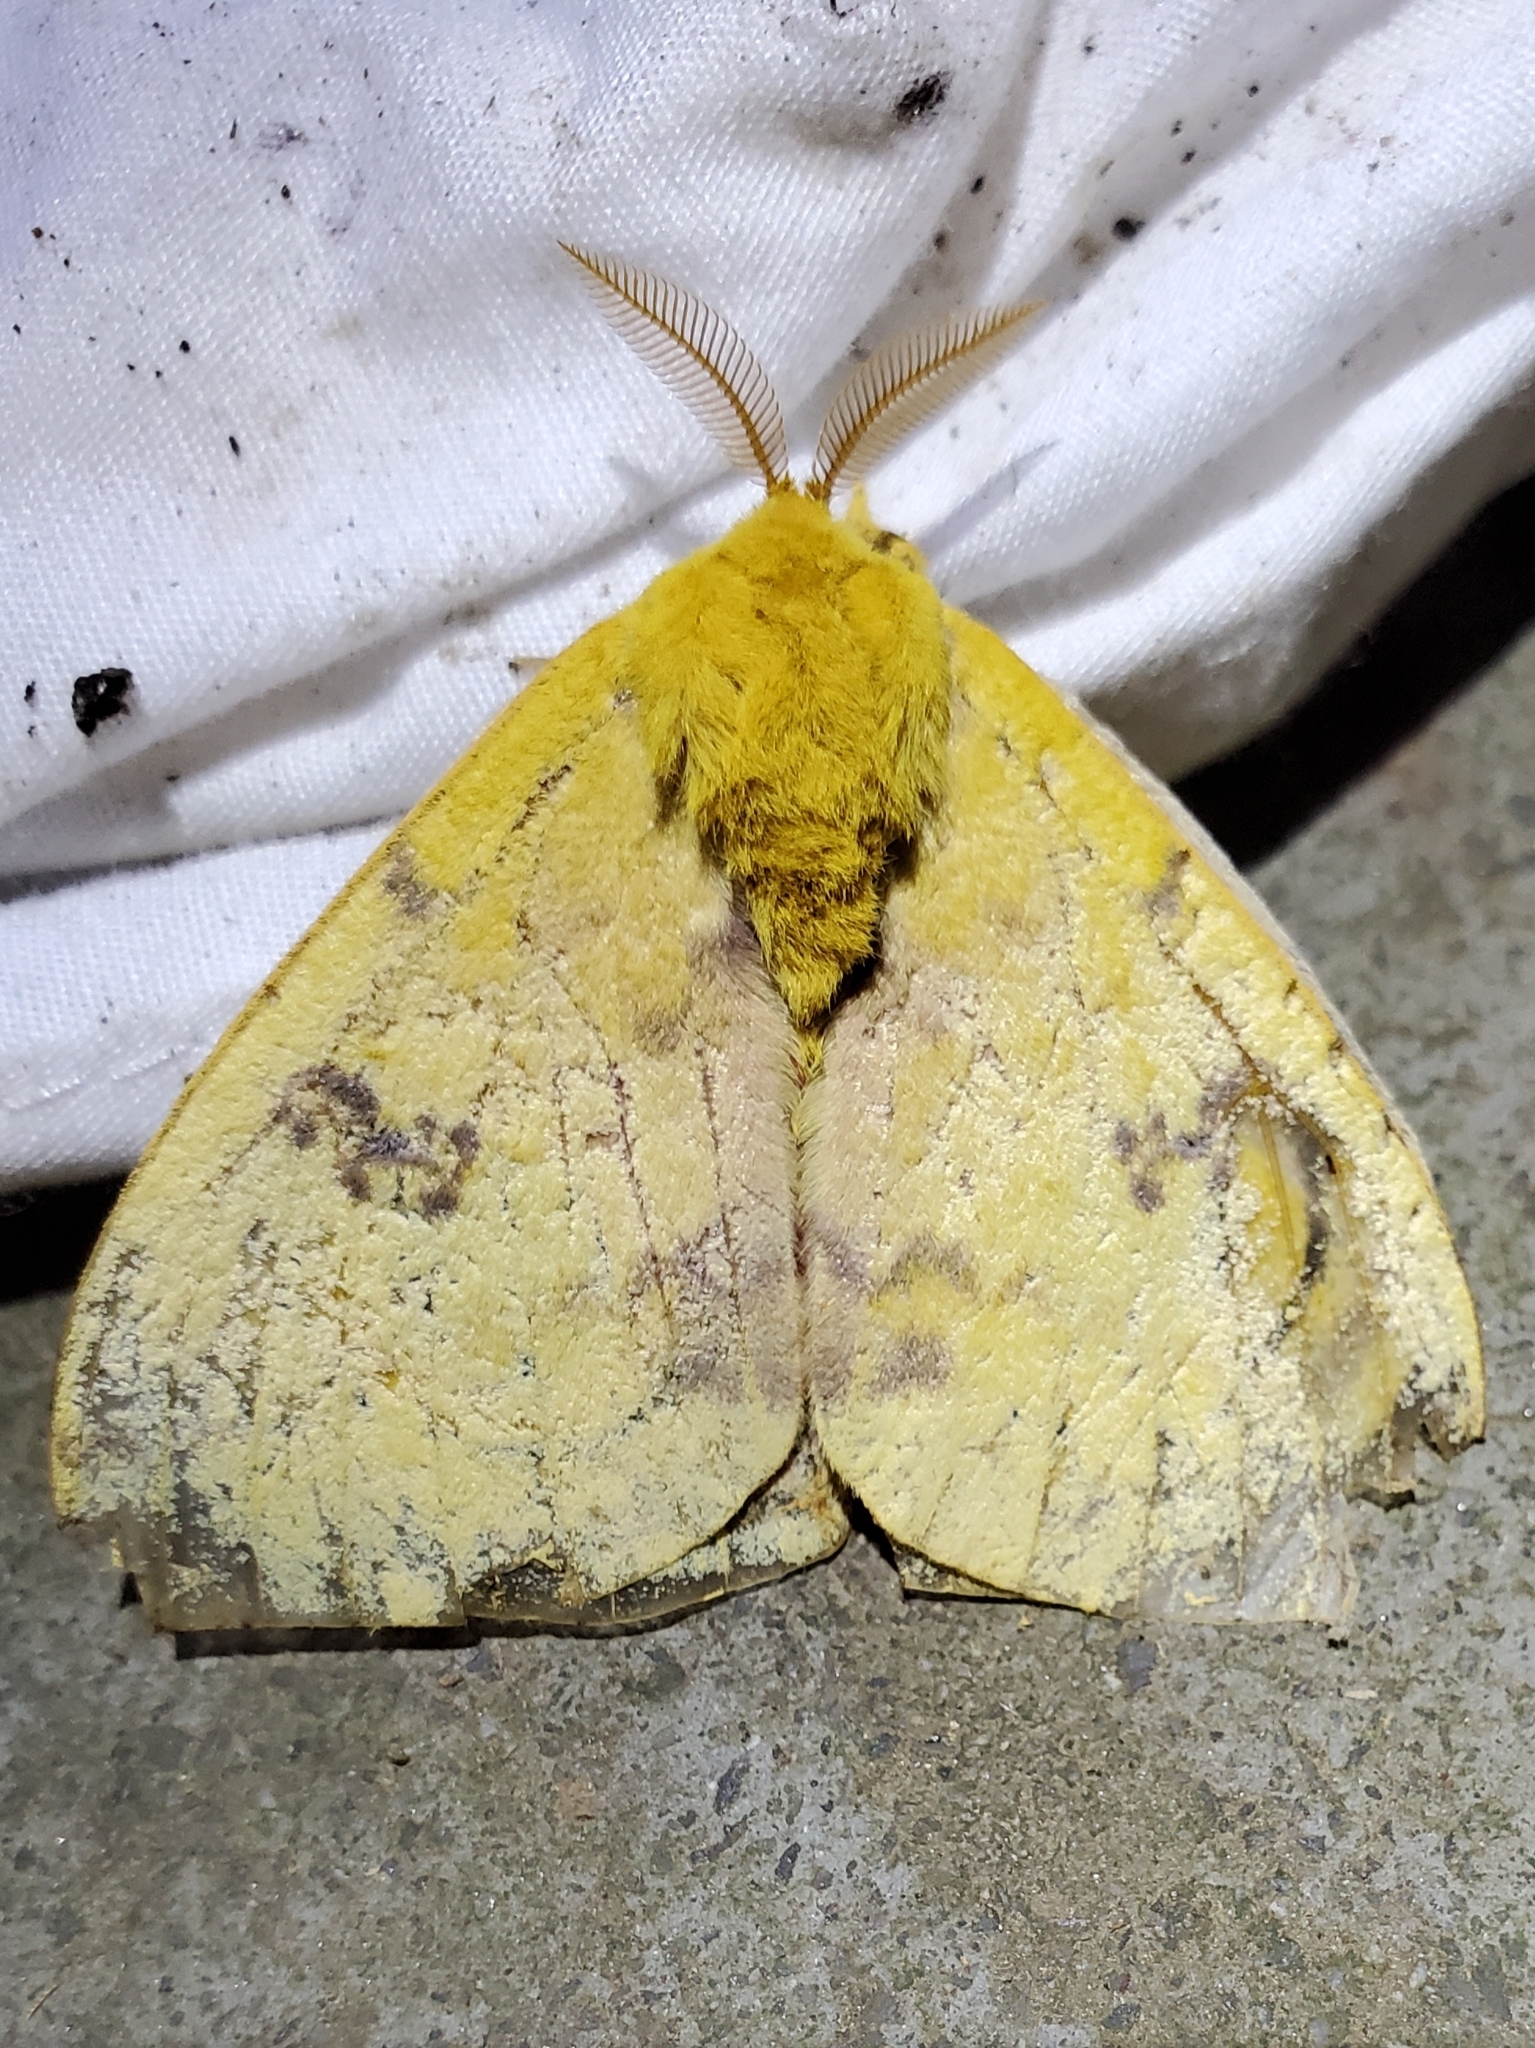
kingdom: Animalia
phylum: Arthropoda
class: Insecta
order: Lepidoptera
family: Saturniidae
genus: Automeris
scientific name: Automeris io
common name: Io moth
